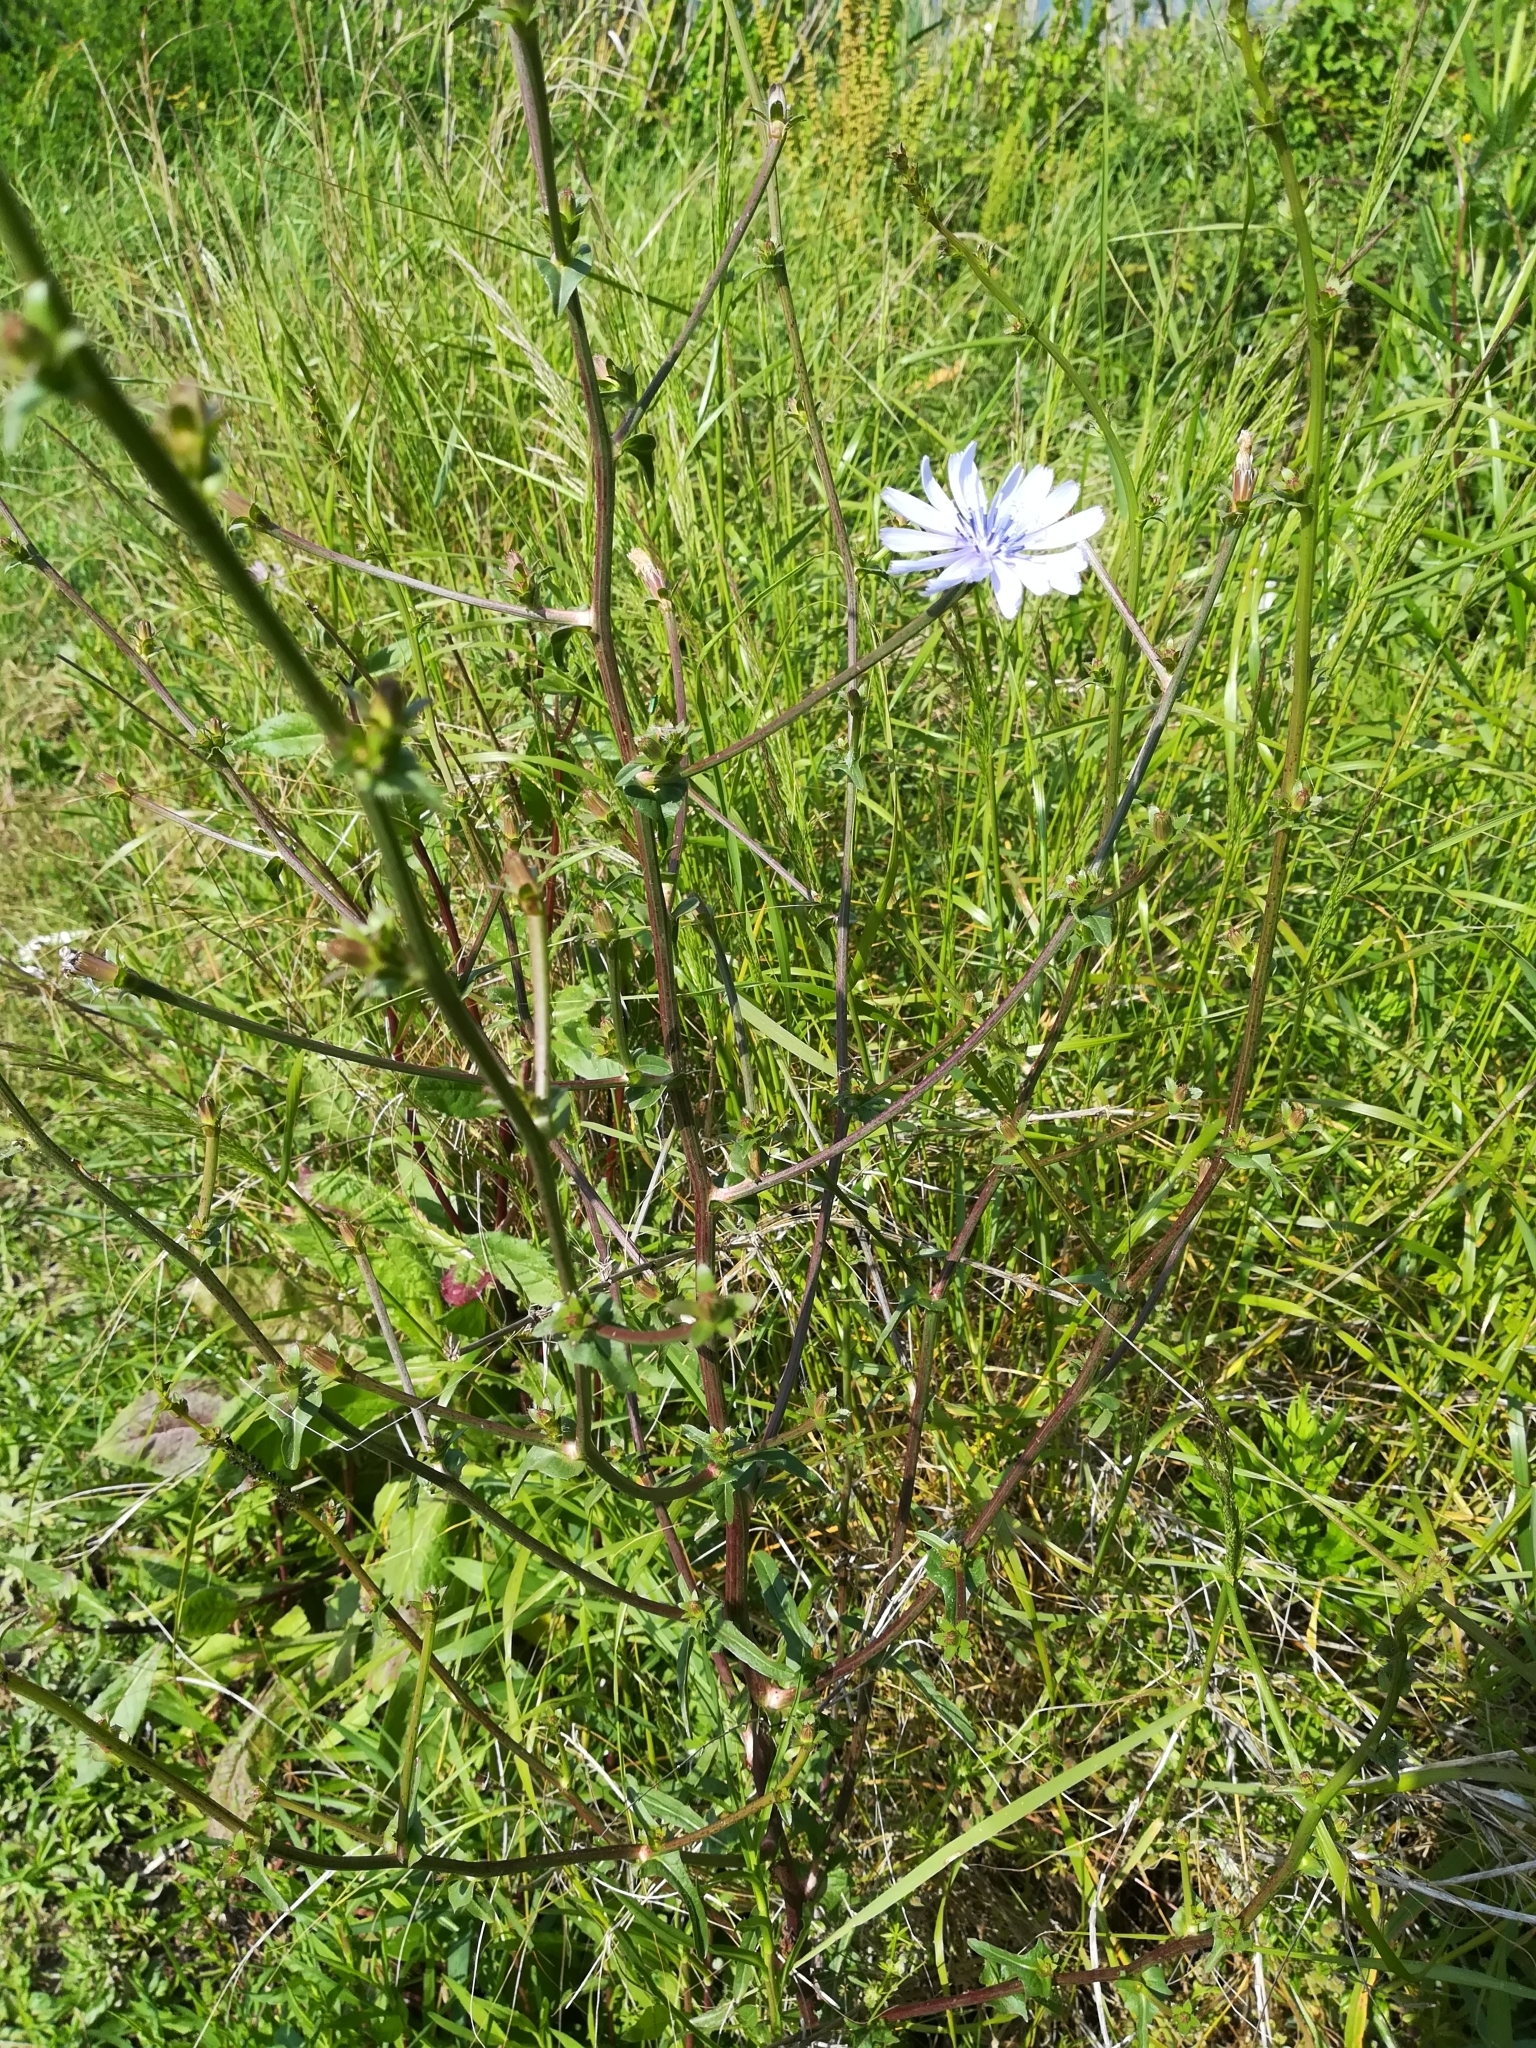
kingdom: Plantae
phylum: Tracheophyta
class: Magnoliopsida
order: Asterales
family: Asteraceae
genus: Cichorium
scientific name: Cichorium intybus
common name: Chicory
